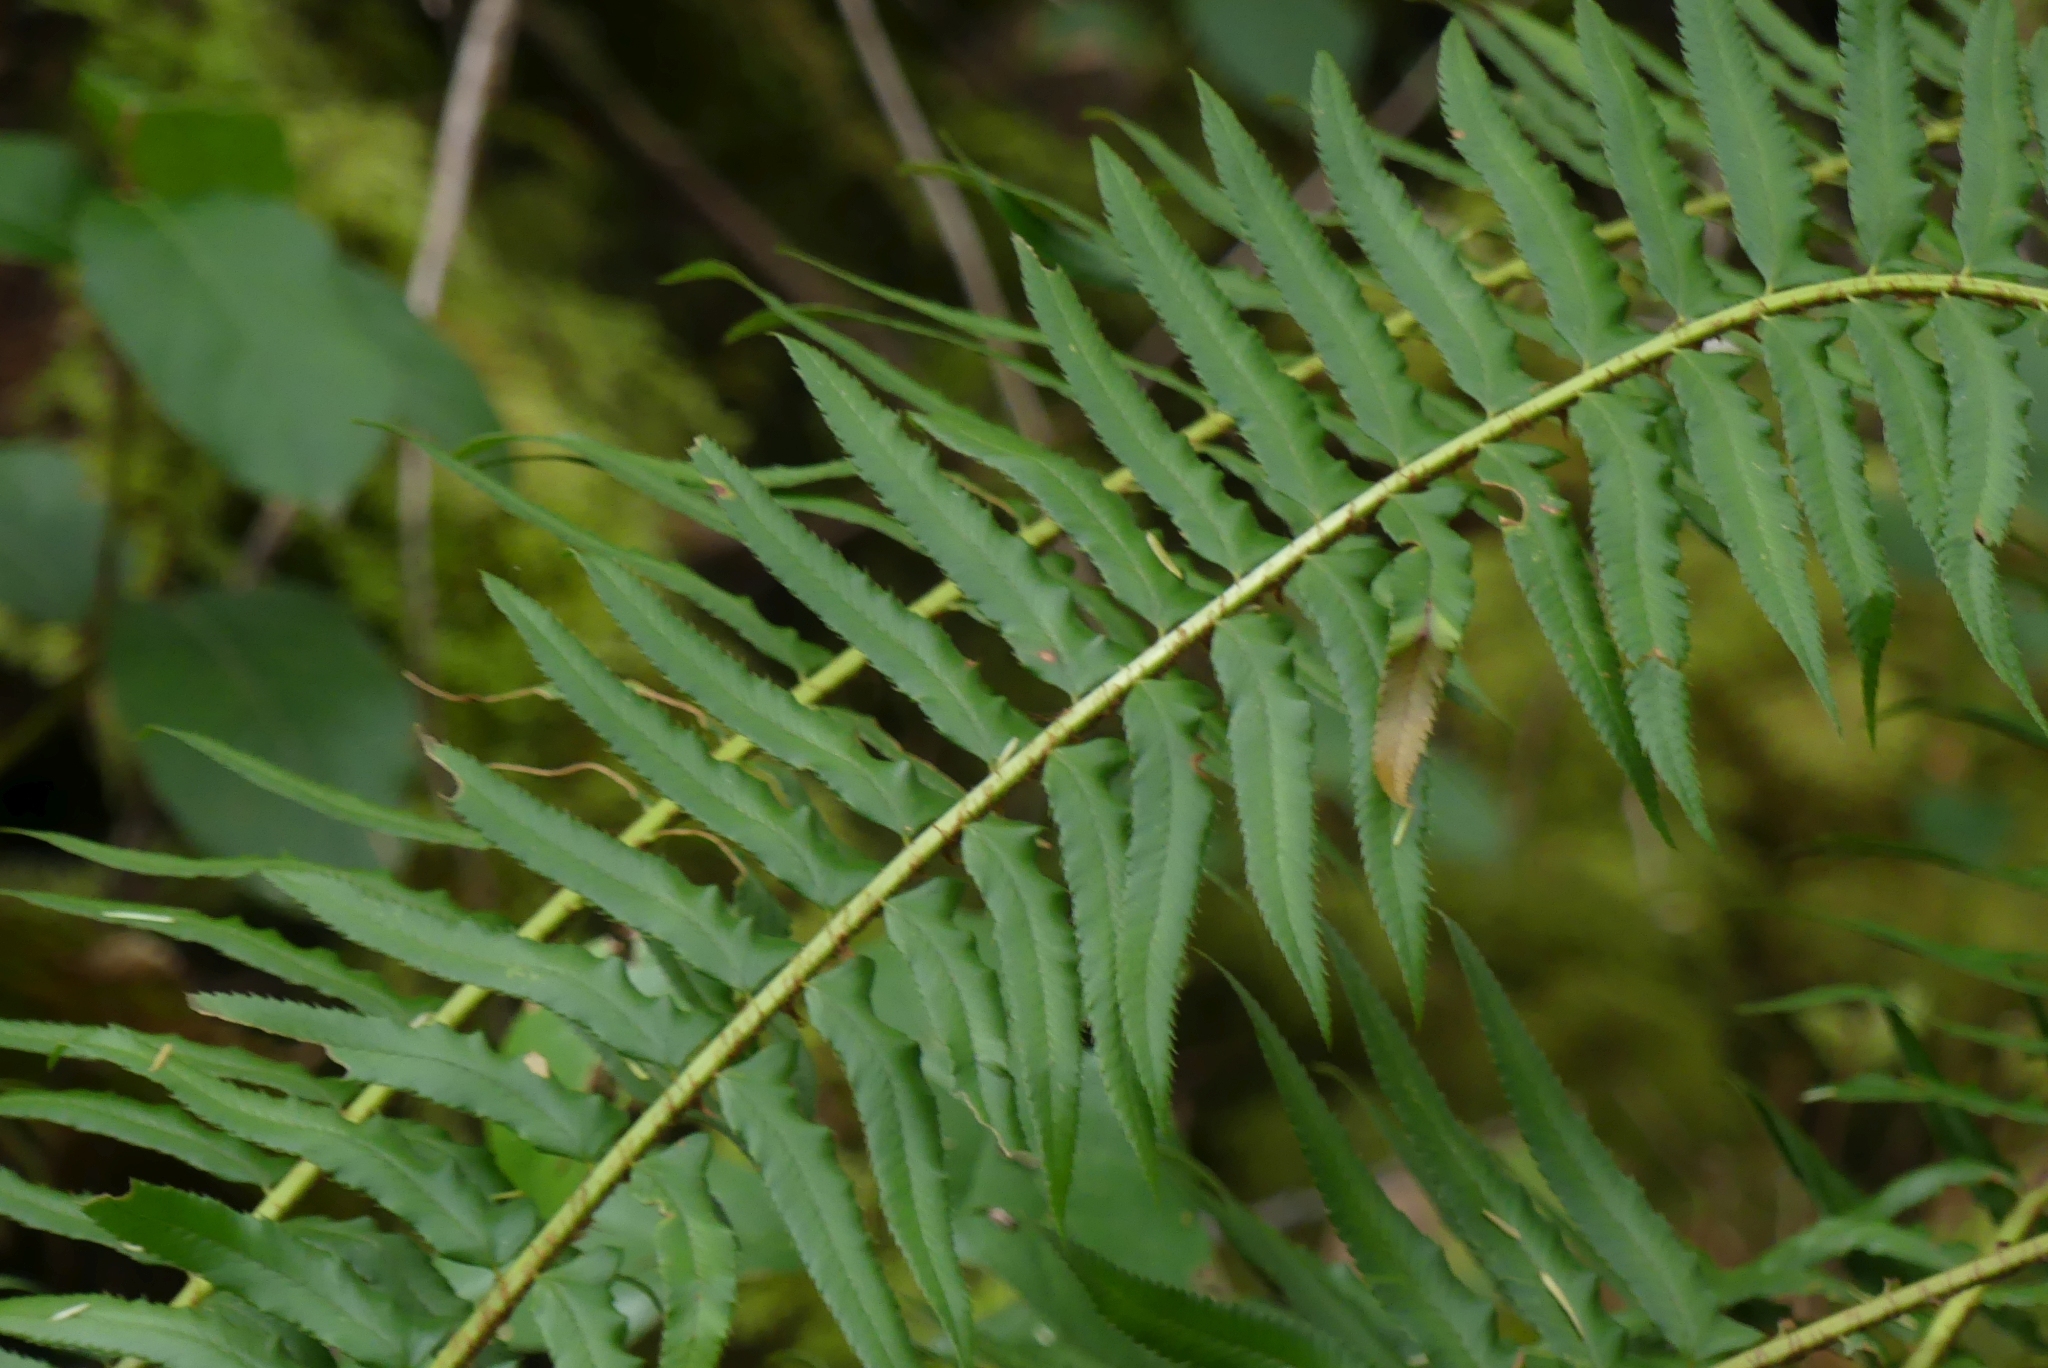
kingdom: Plantae
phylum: Tracheophyta
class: Polypodiopsida
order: Polypodiales
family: Dryopteridaceae
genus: Polystichum
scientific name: Polystichum munitum
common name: Western sword-fern
